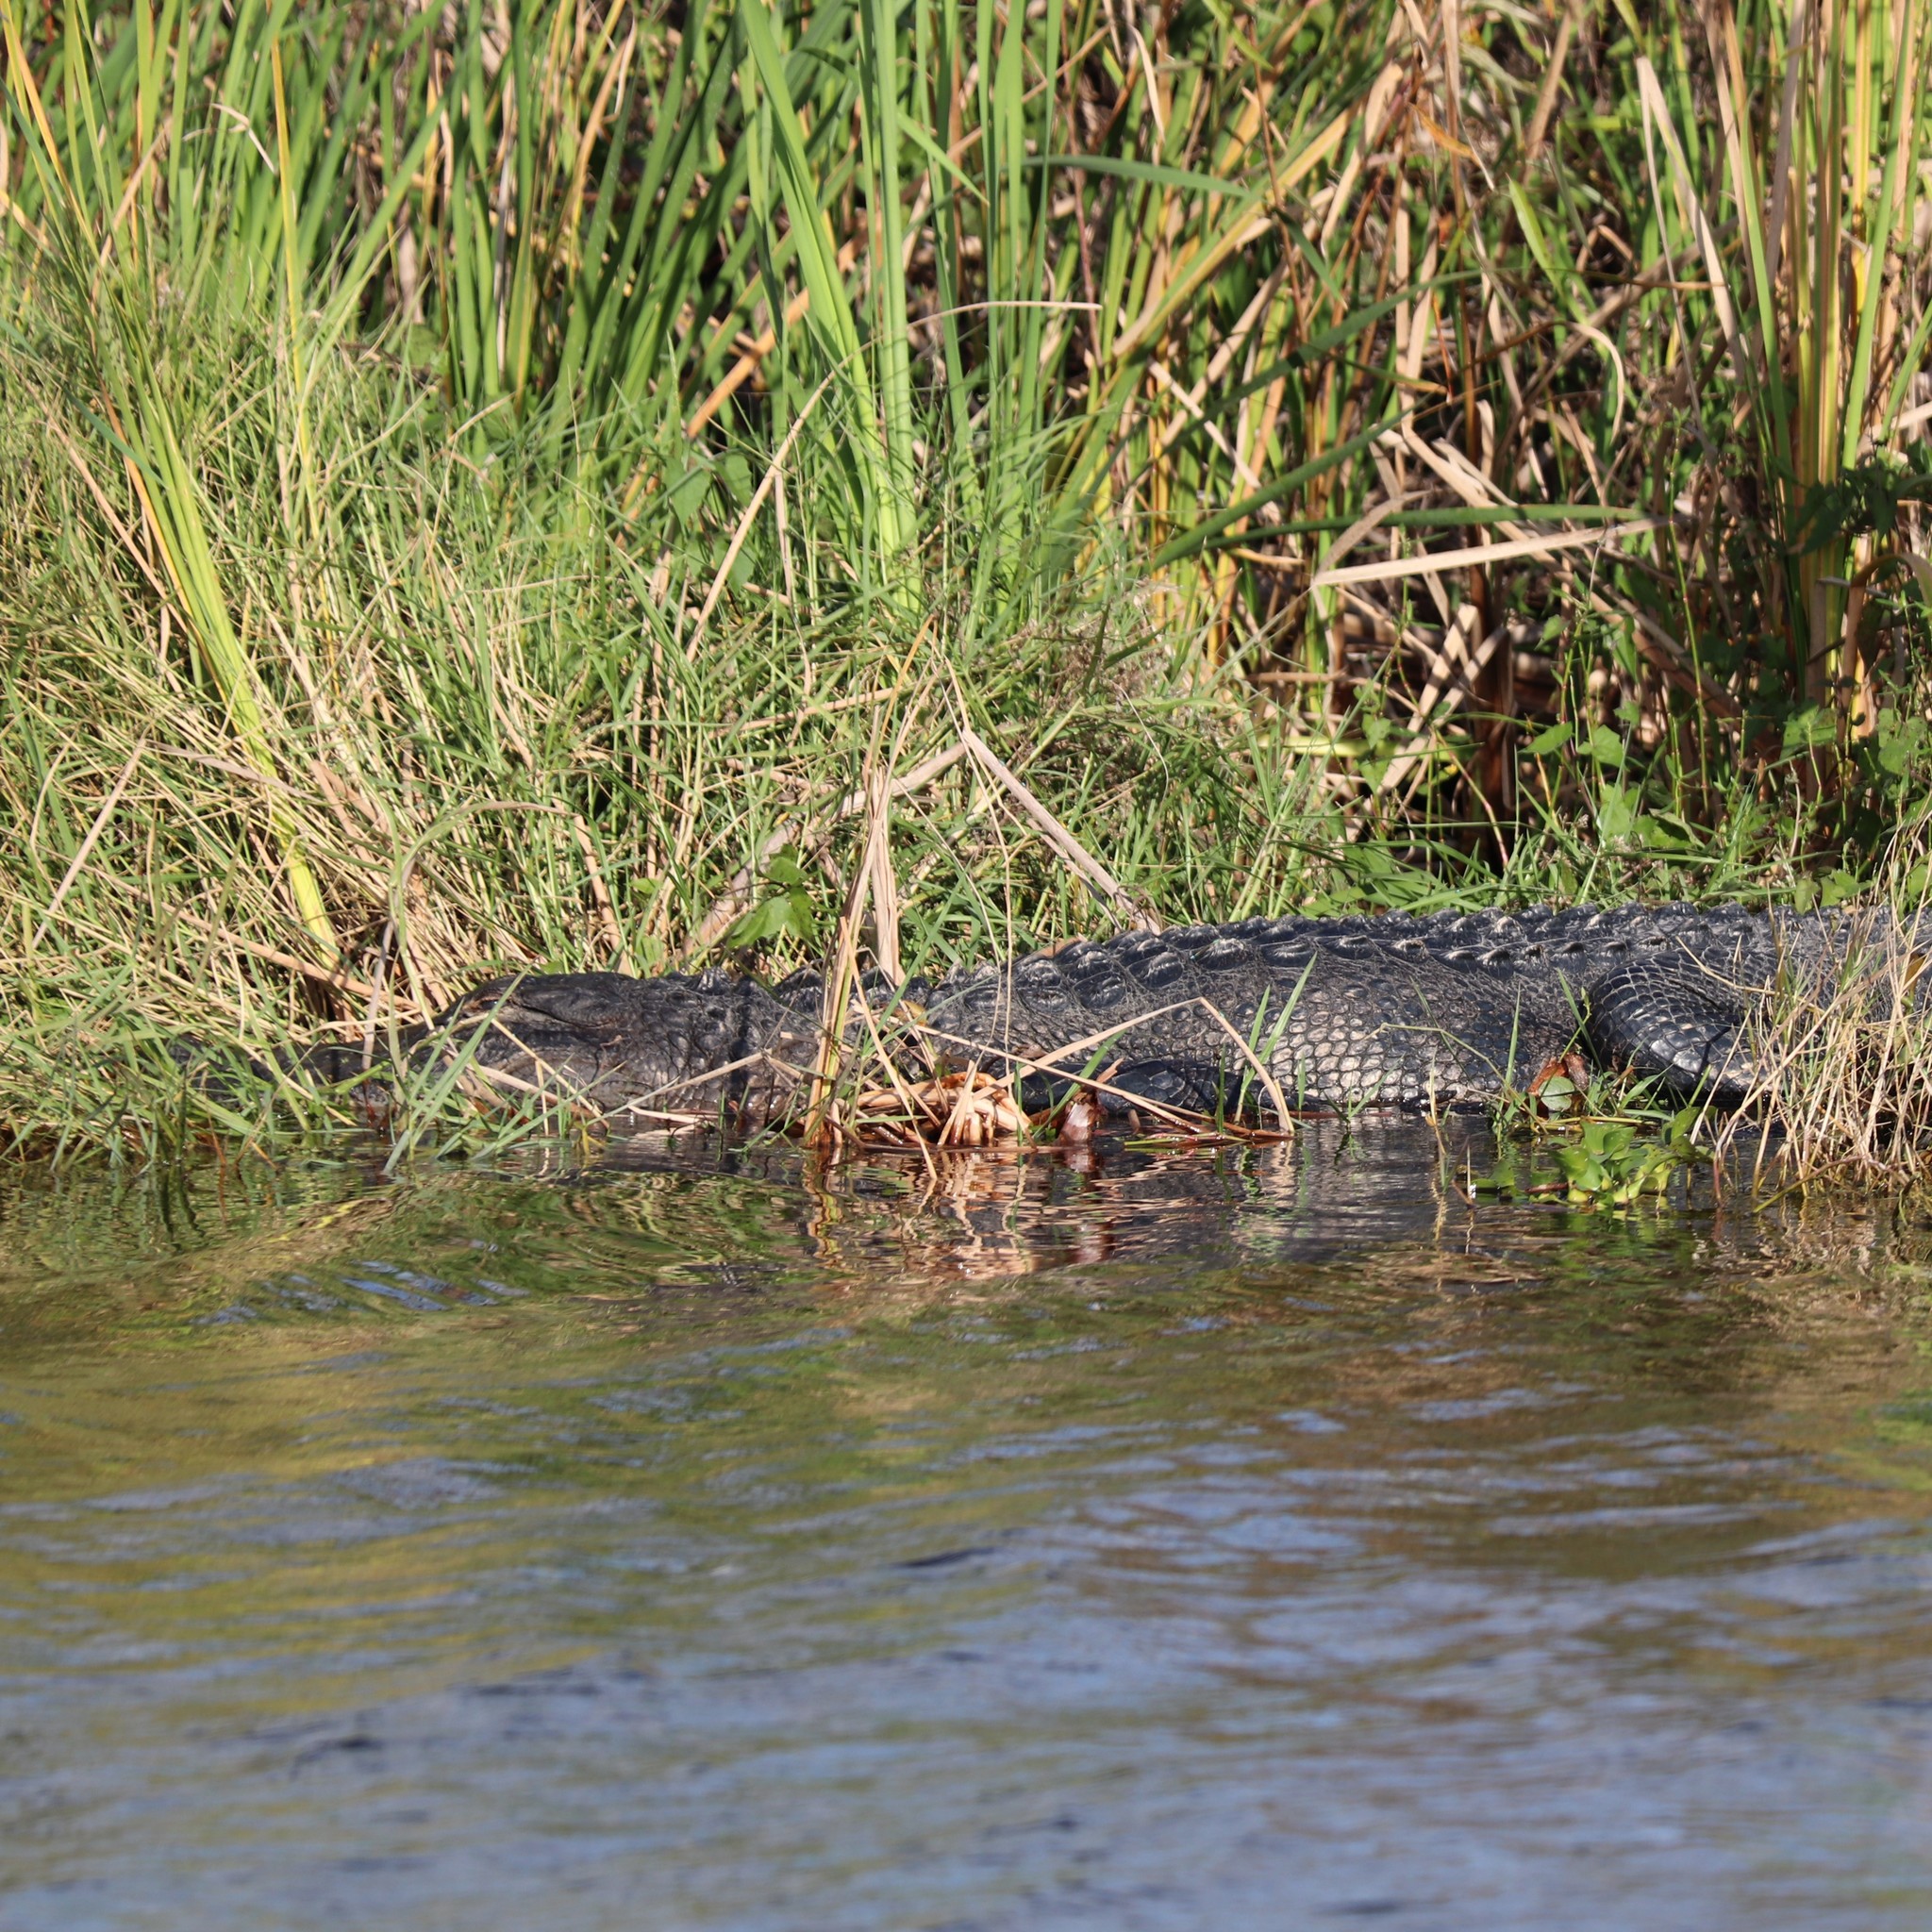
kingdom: Animalia
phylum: Chordata
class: Crocodylia
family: Alligatoridae
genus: Alligator
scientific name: Alligator mississippiensis
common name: American alligator
